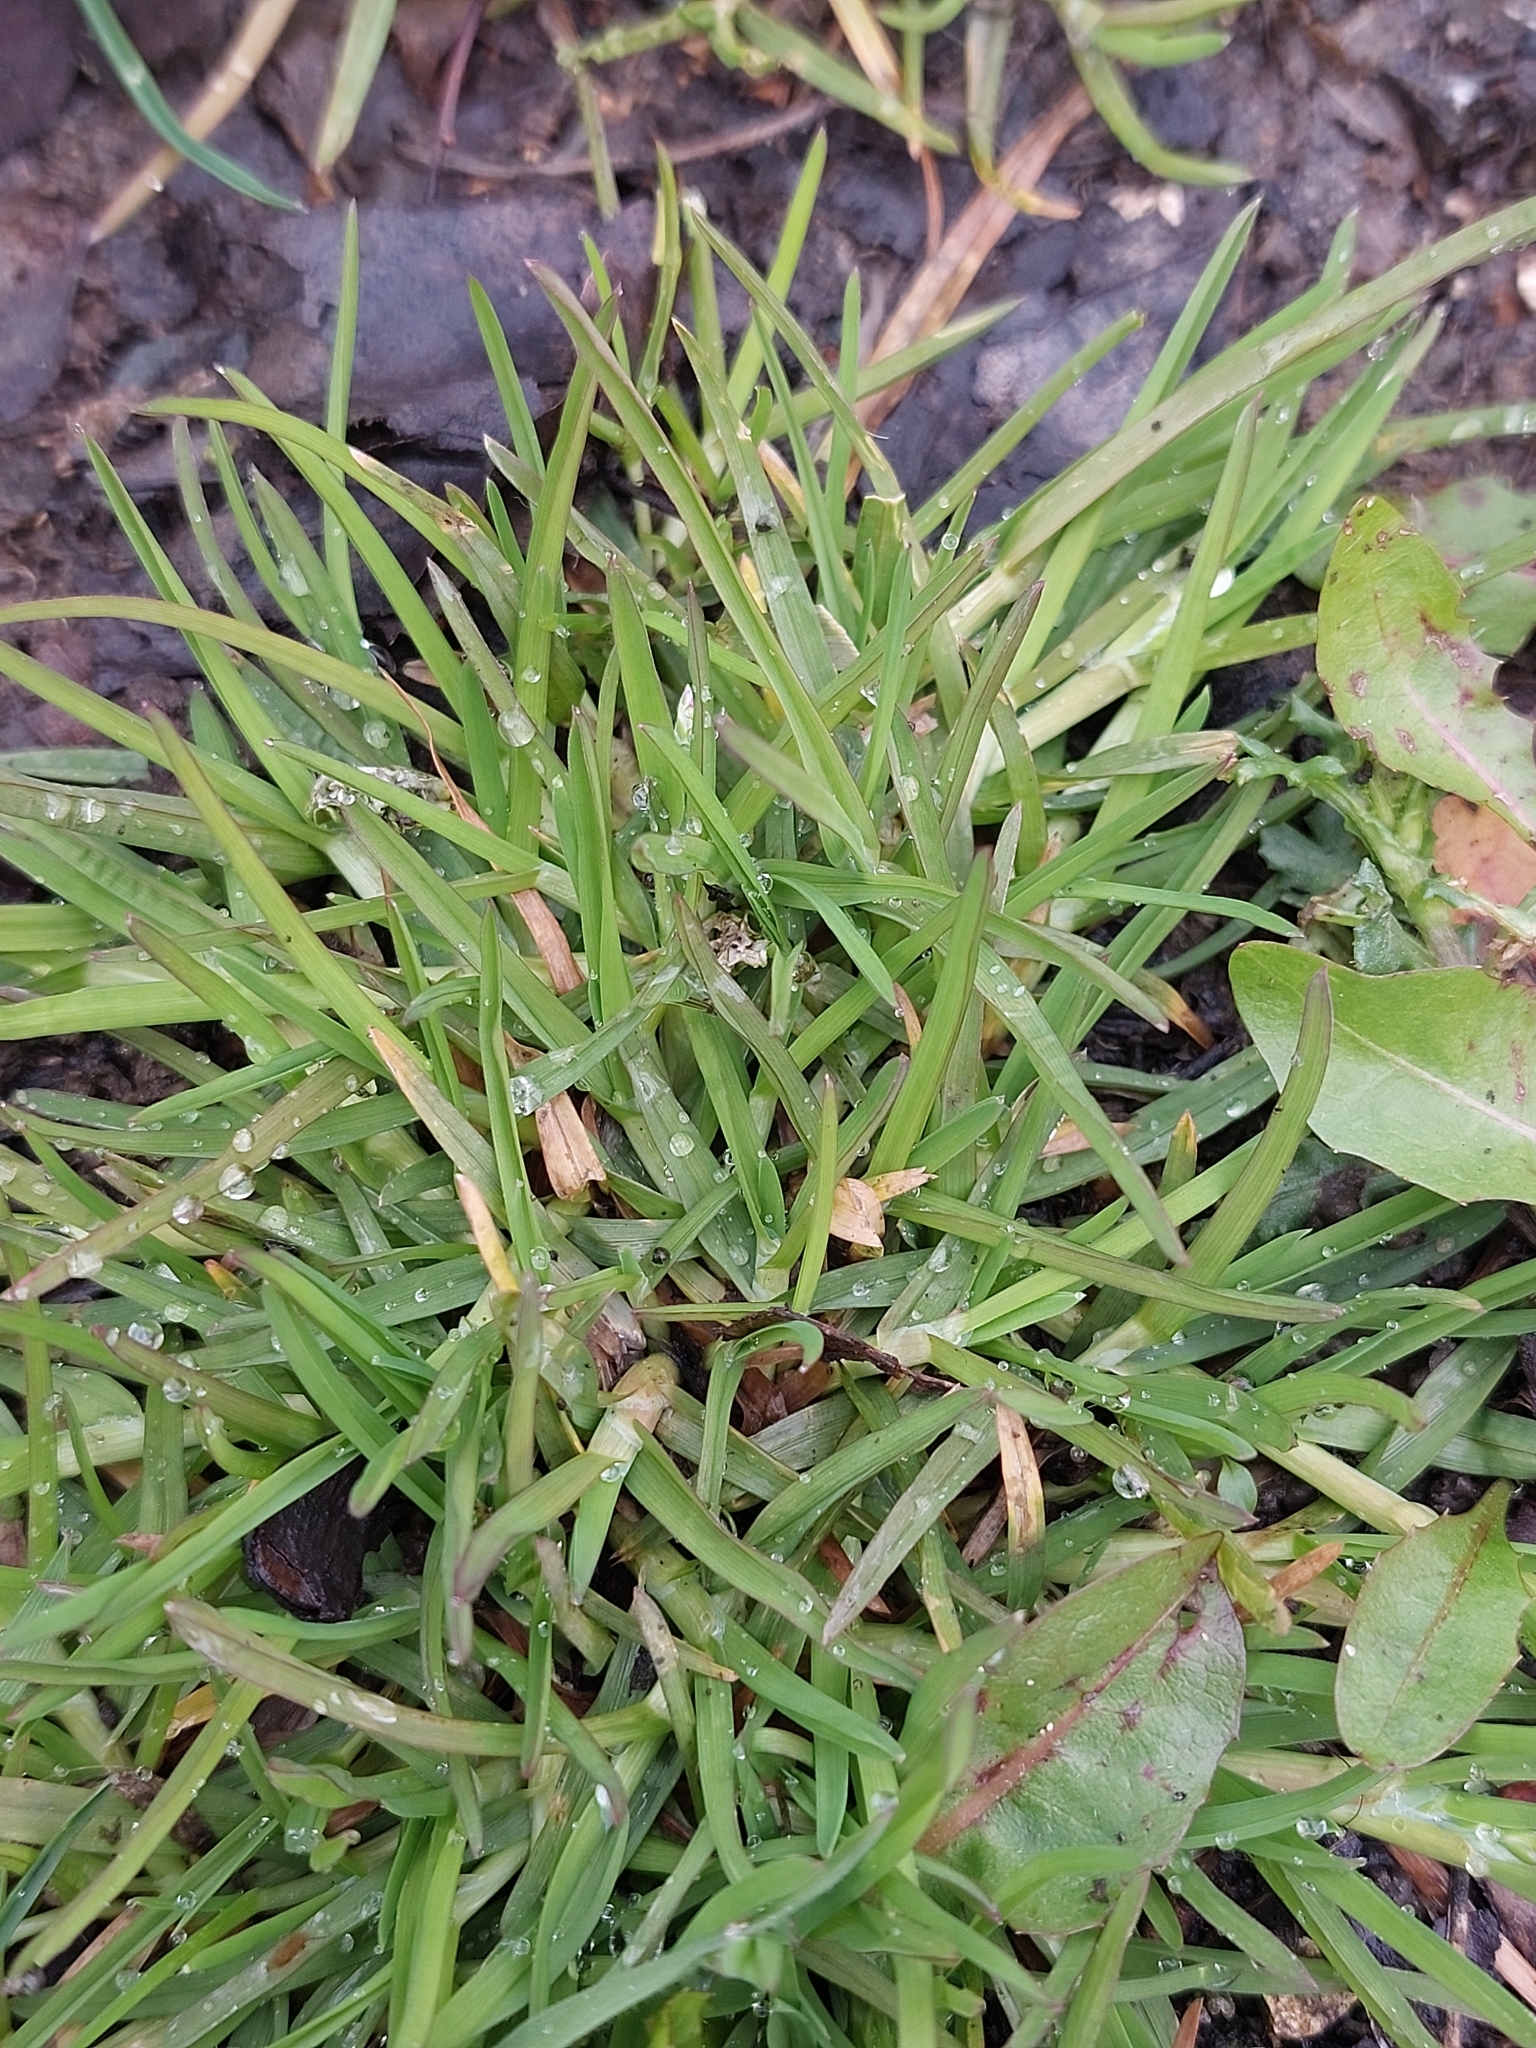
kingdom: Plantae
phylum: Tracheophyta
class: Liliopsida
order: Poales
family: Poaceae
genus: Poa
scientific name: Poa annua
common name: Annual bluegrass
